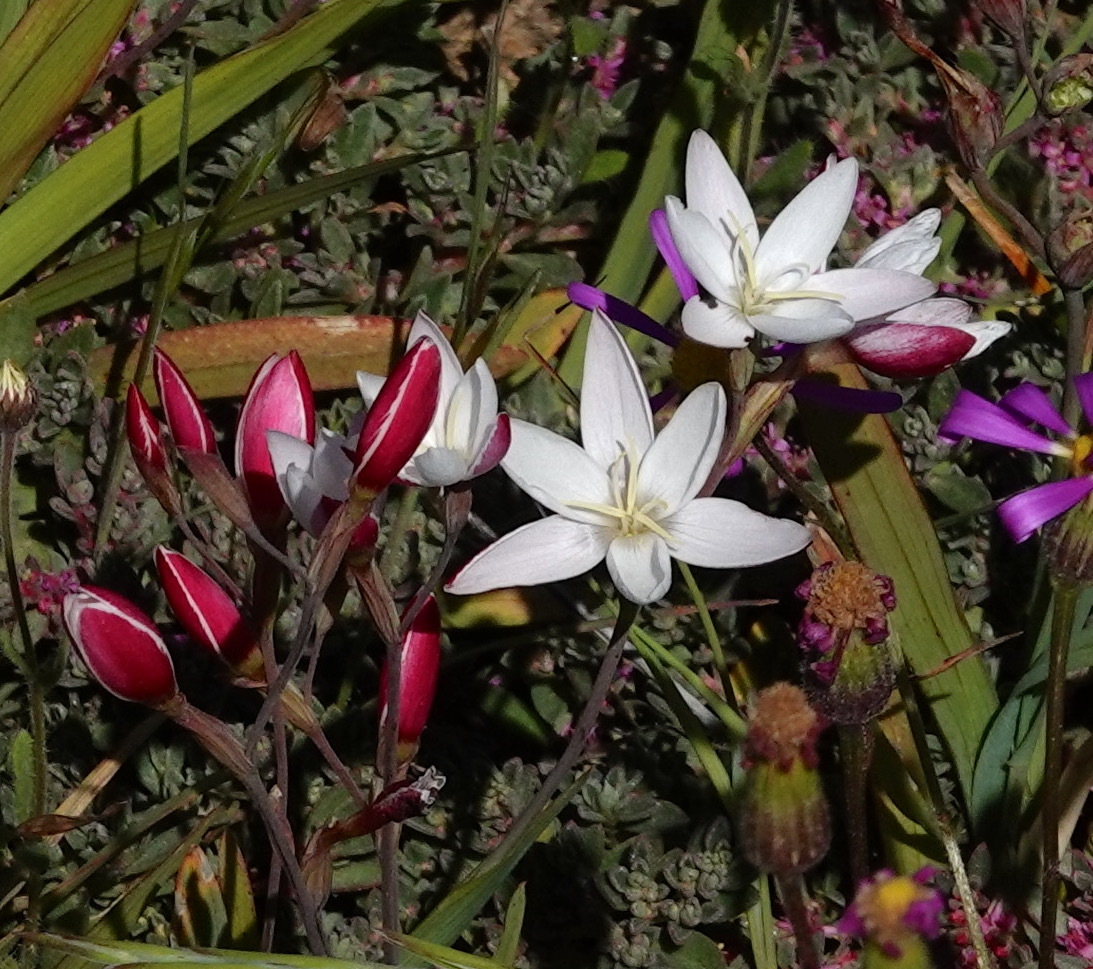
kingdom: Plantae
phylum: Tracheophyta
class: Liliopsida
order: Asparagales
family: Iridaceae
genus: Hesperantha
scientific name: Hesperantha cucullata
